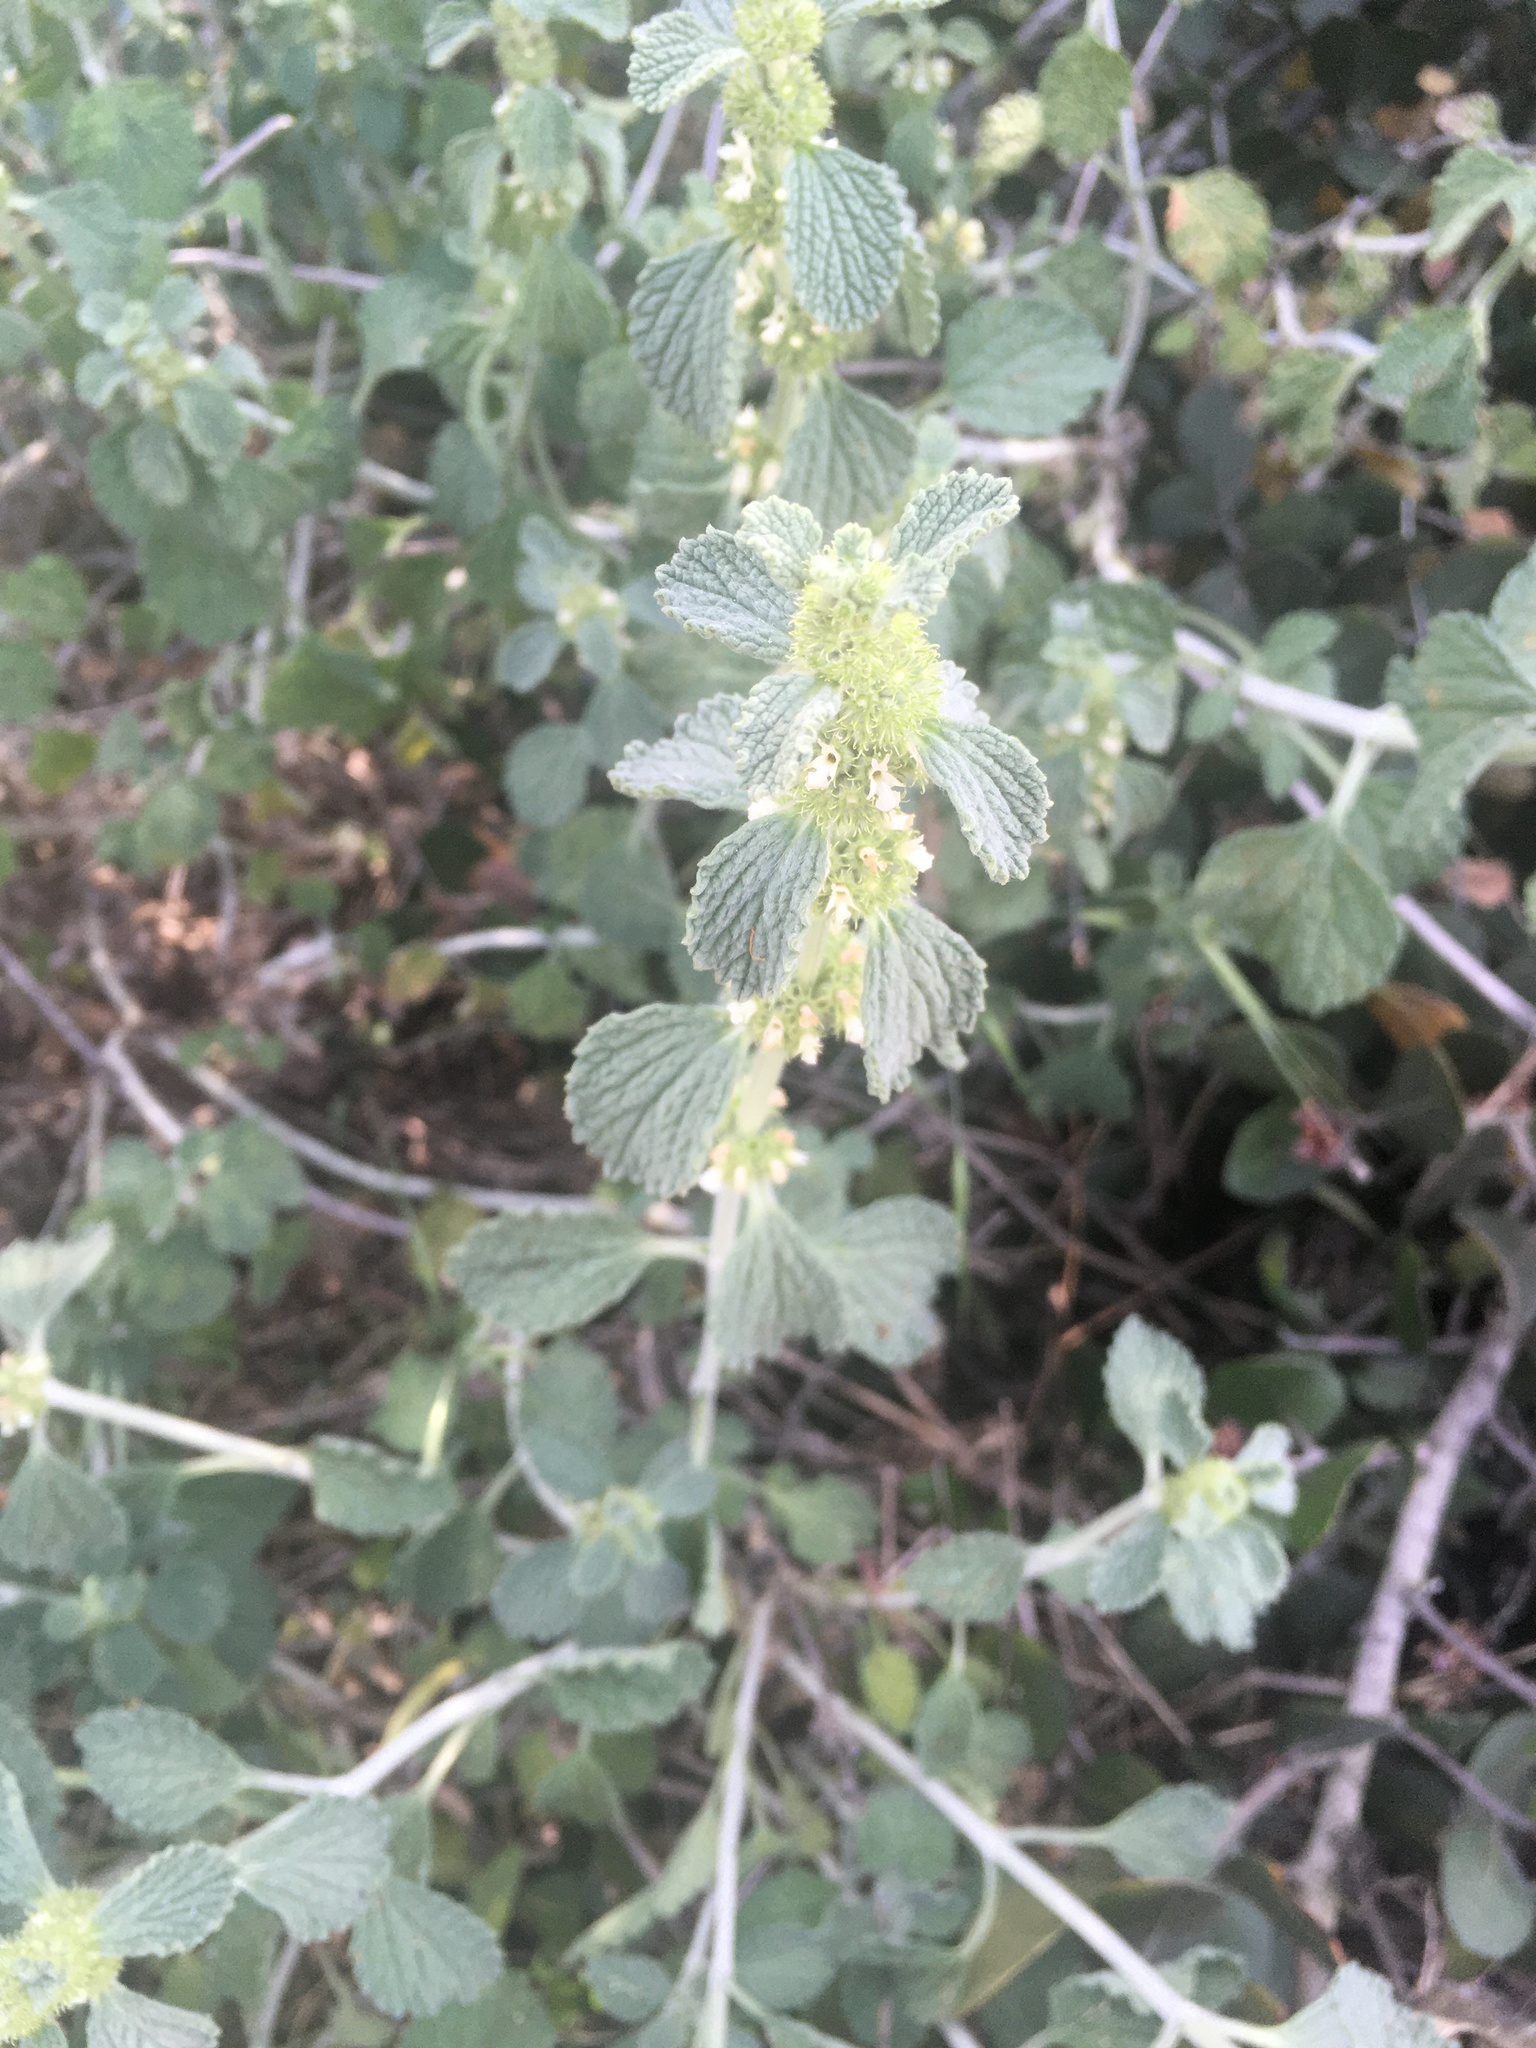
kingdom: Plantae
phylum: Tracheophyta
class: Magnoliopsida
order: Lamiales
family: Lamiaceae
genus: Marrubium
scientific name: Marrubium vulgare
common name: Horehound
